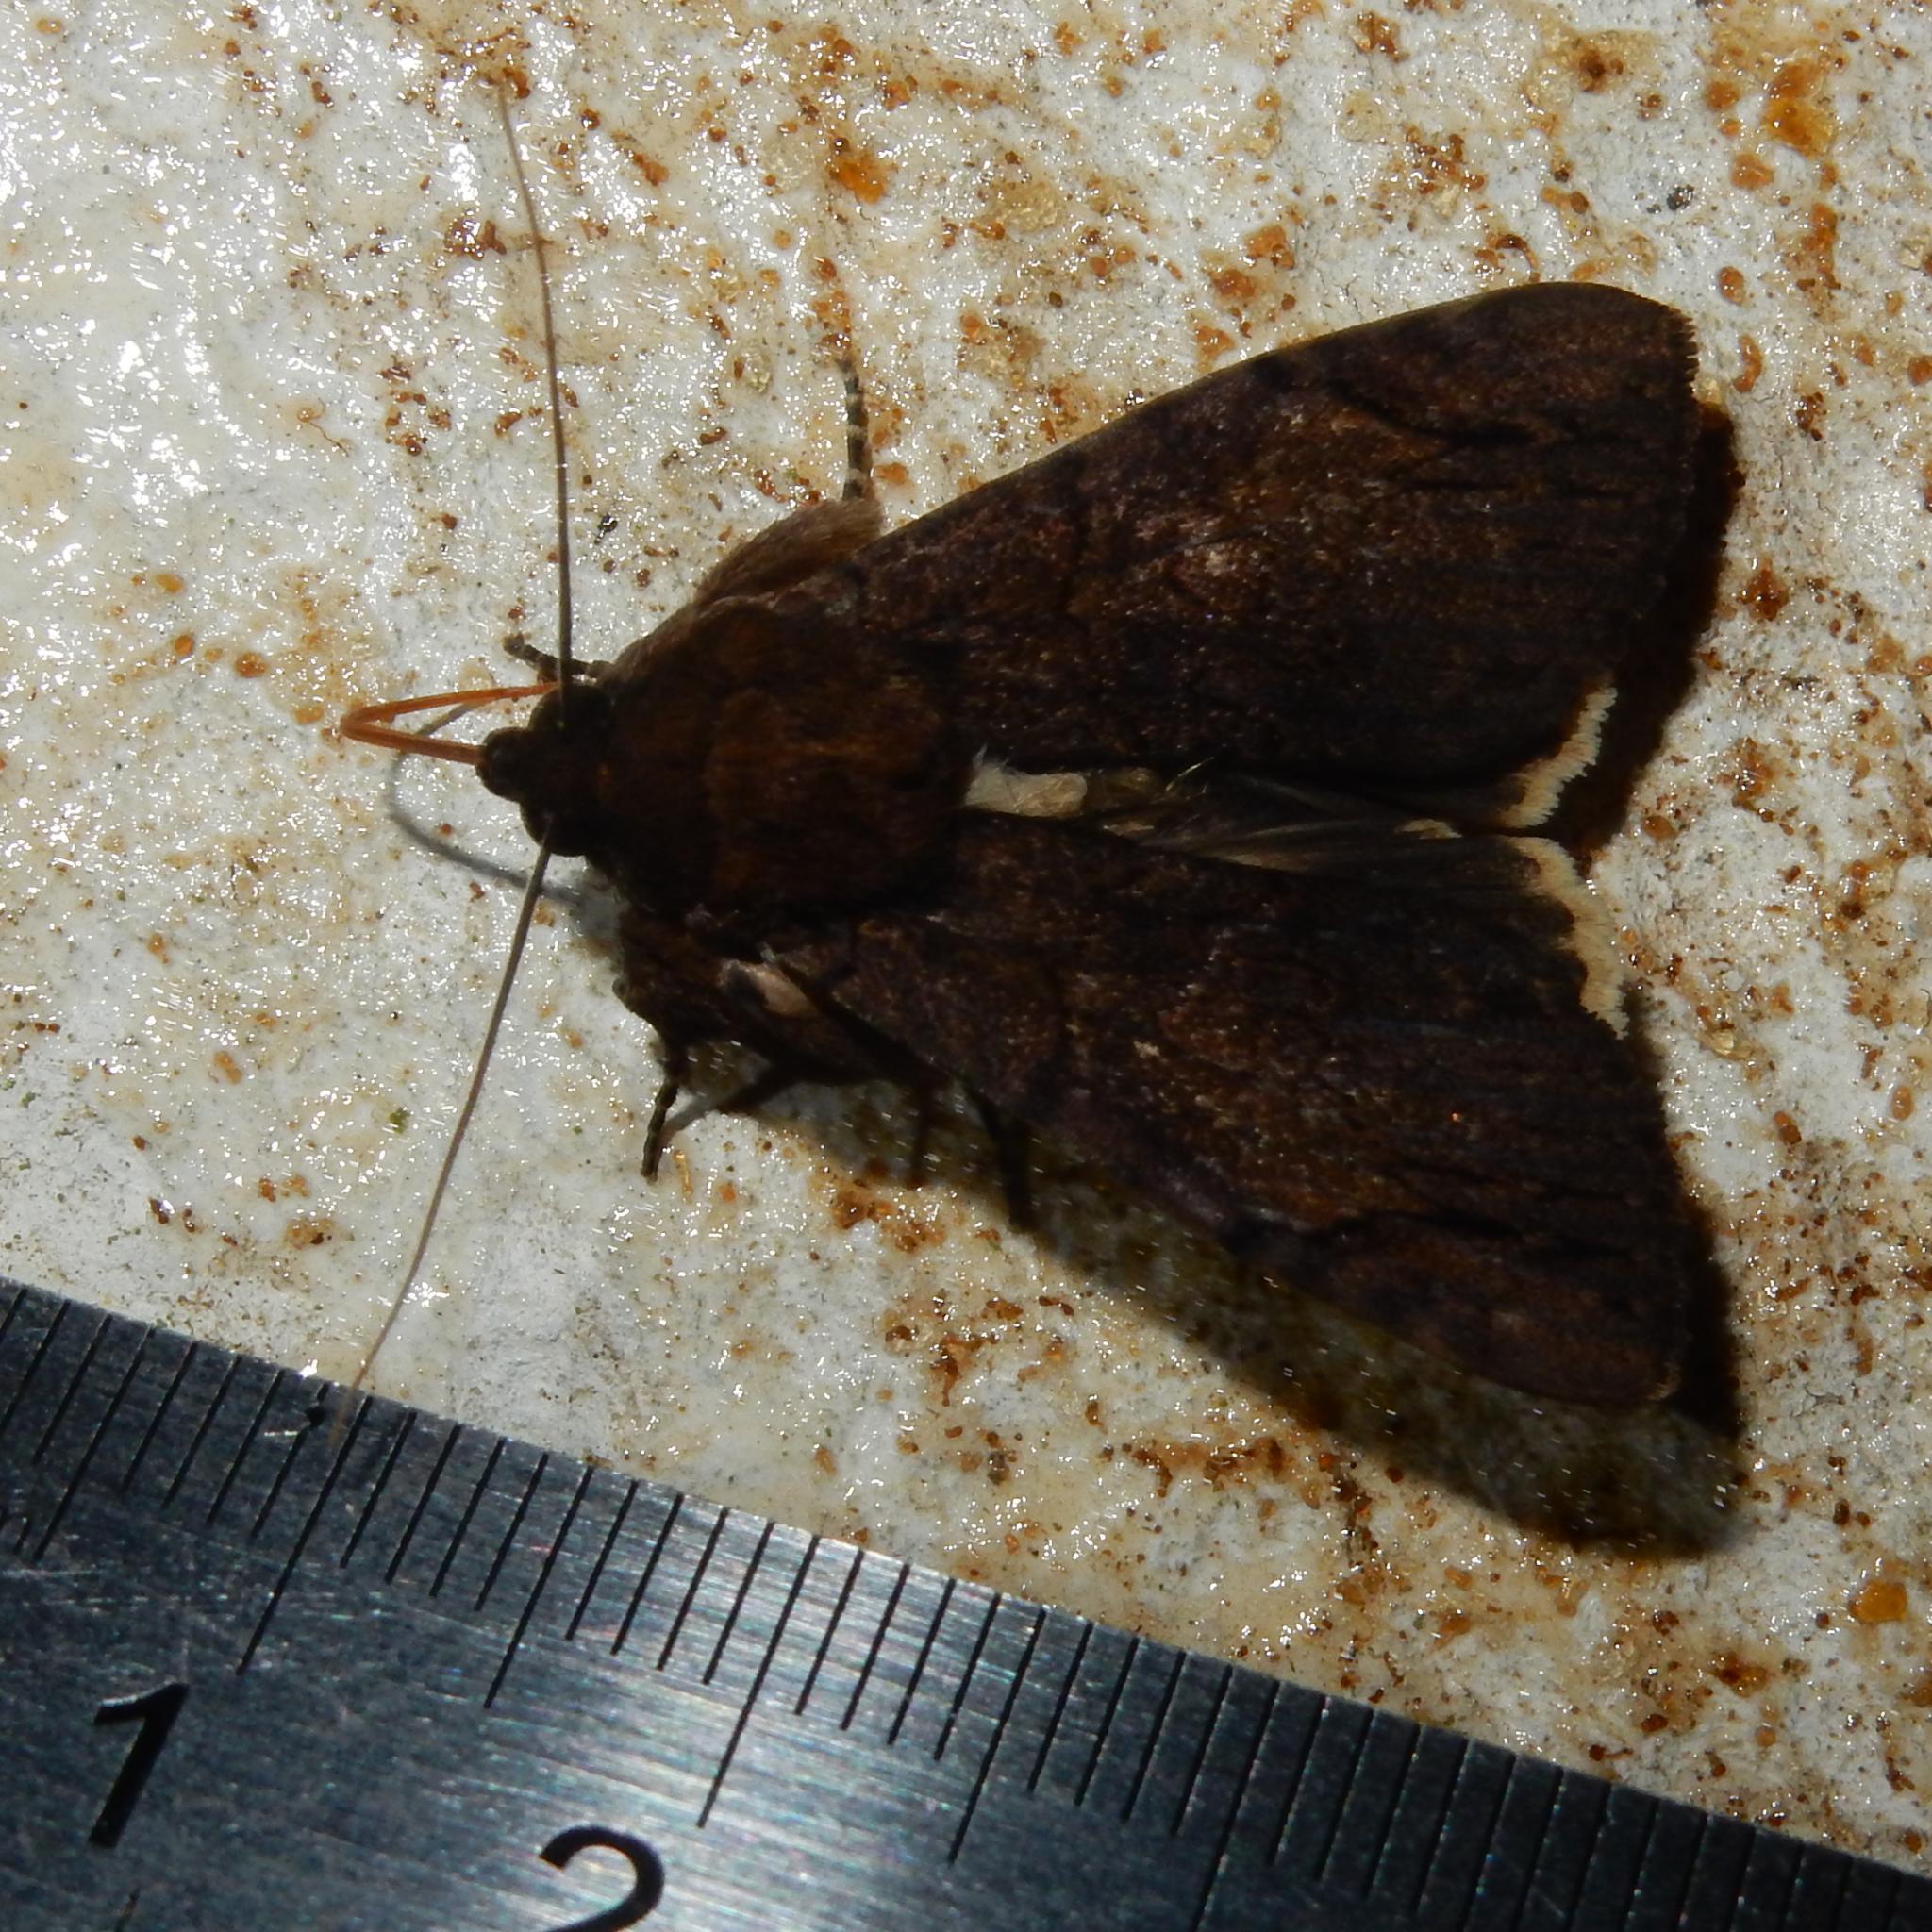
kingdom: Animalia
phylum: Arthropoda
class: Insecta
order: Lepidoptera
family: Erebidae
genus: Ulotrichopus
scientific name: Ulotrichopus mesoleuca
